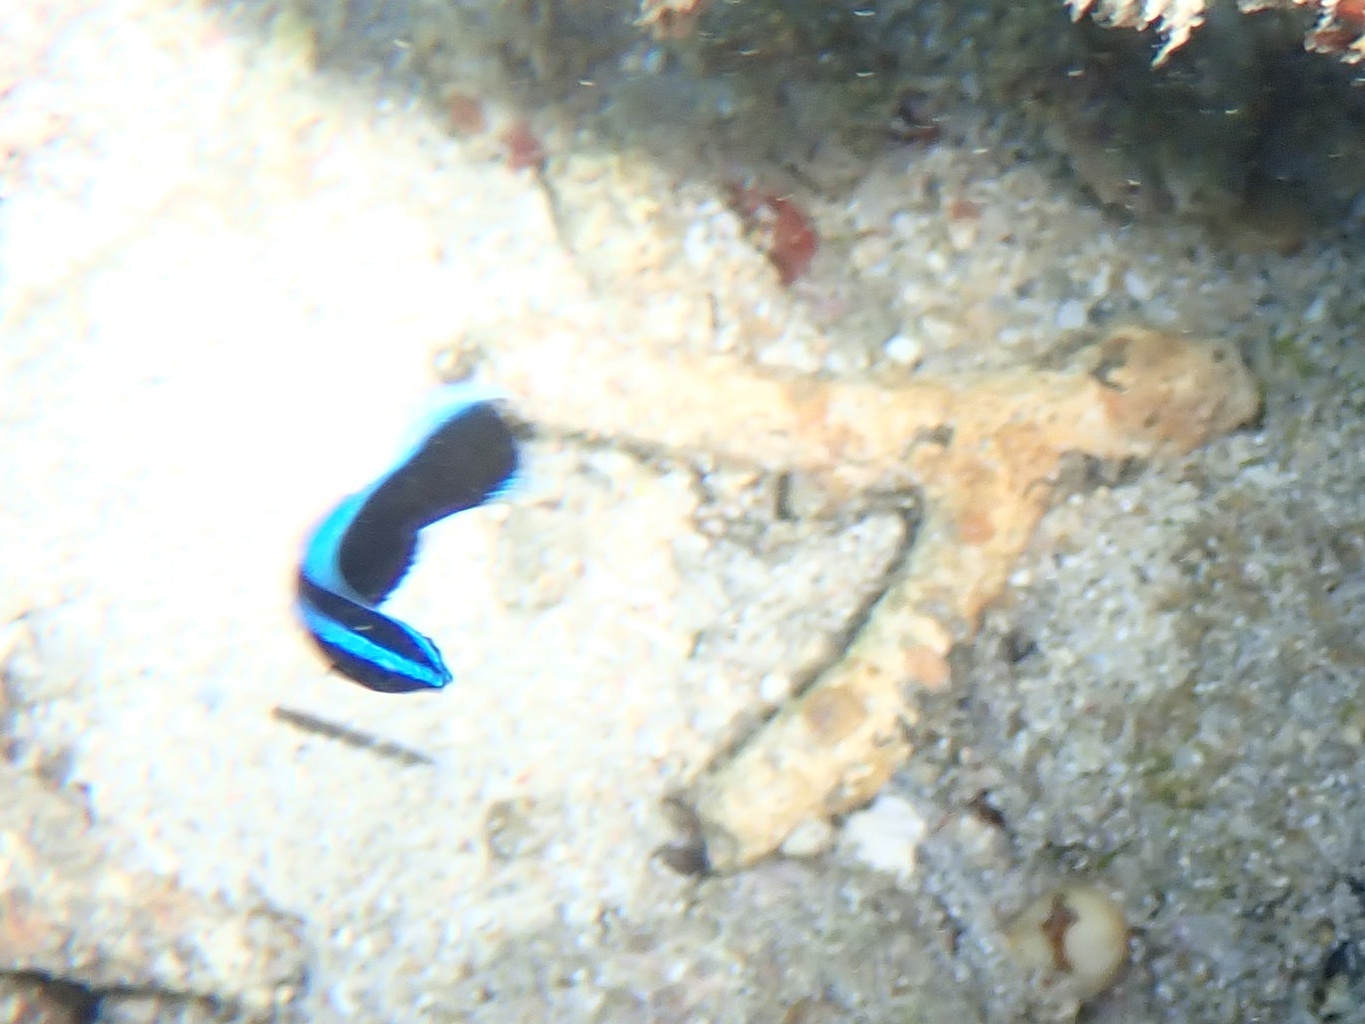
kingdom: Animalia
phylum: Chordata
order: Perciformes
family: Labridae
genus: Labroides
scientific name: Labroides dimidiatus
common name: Blue diesel wrasse
